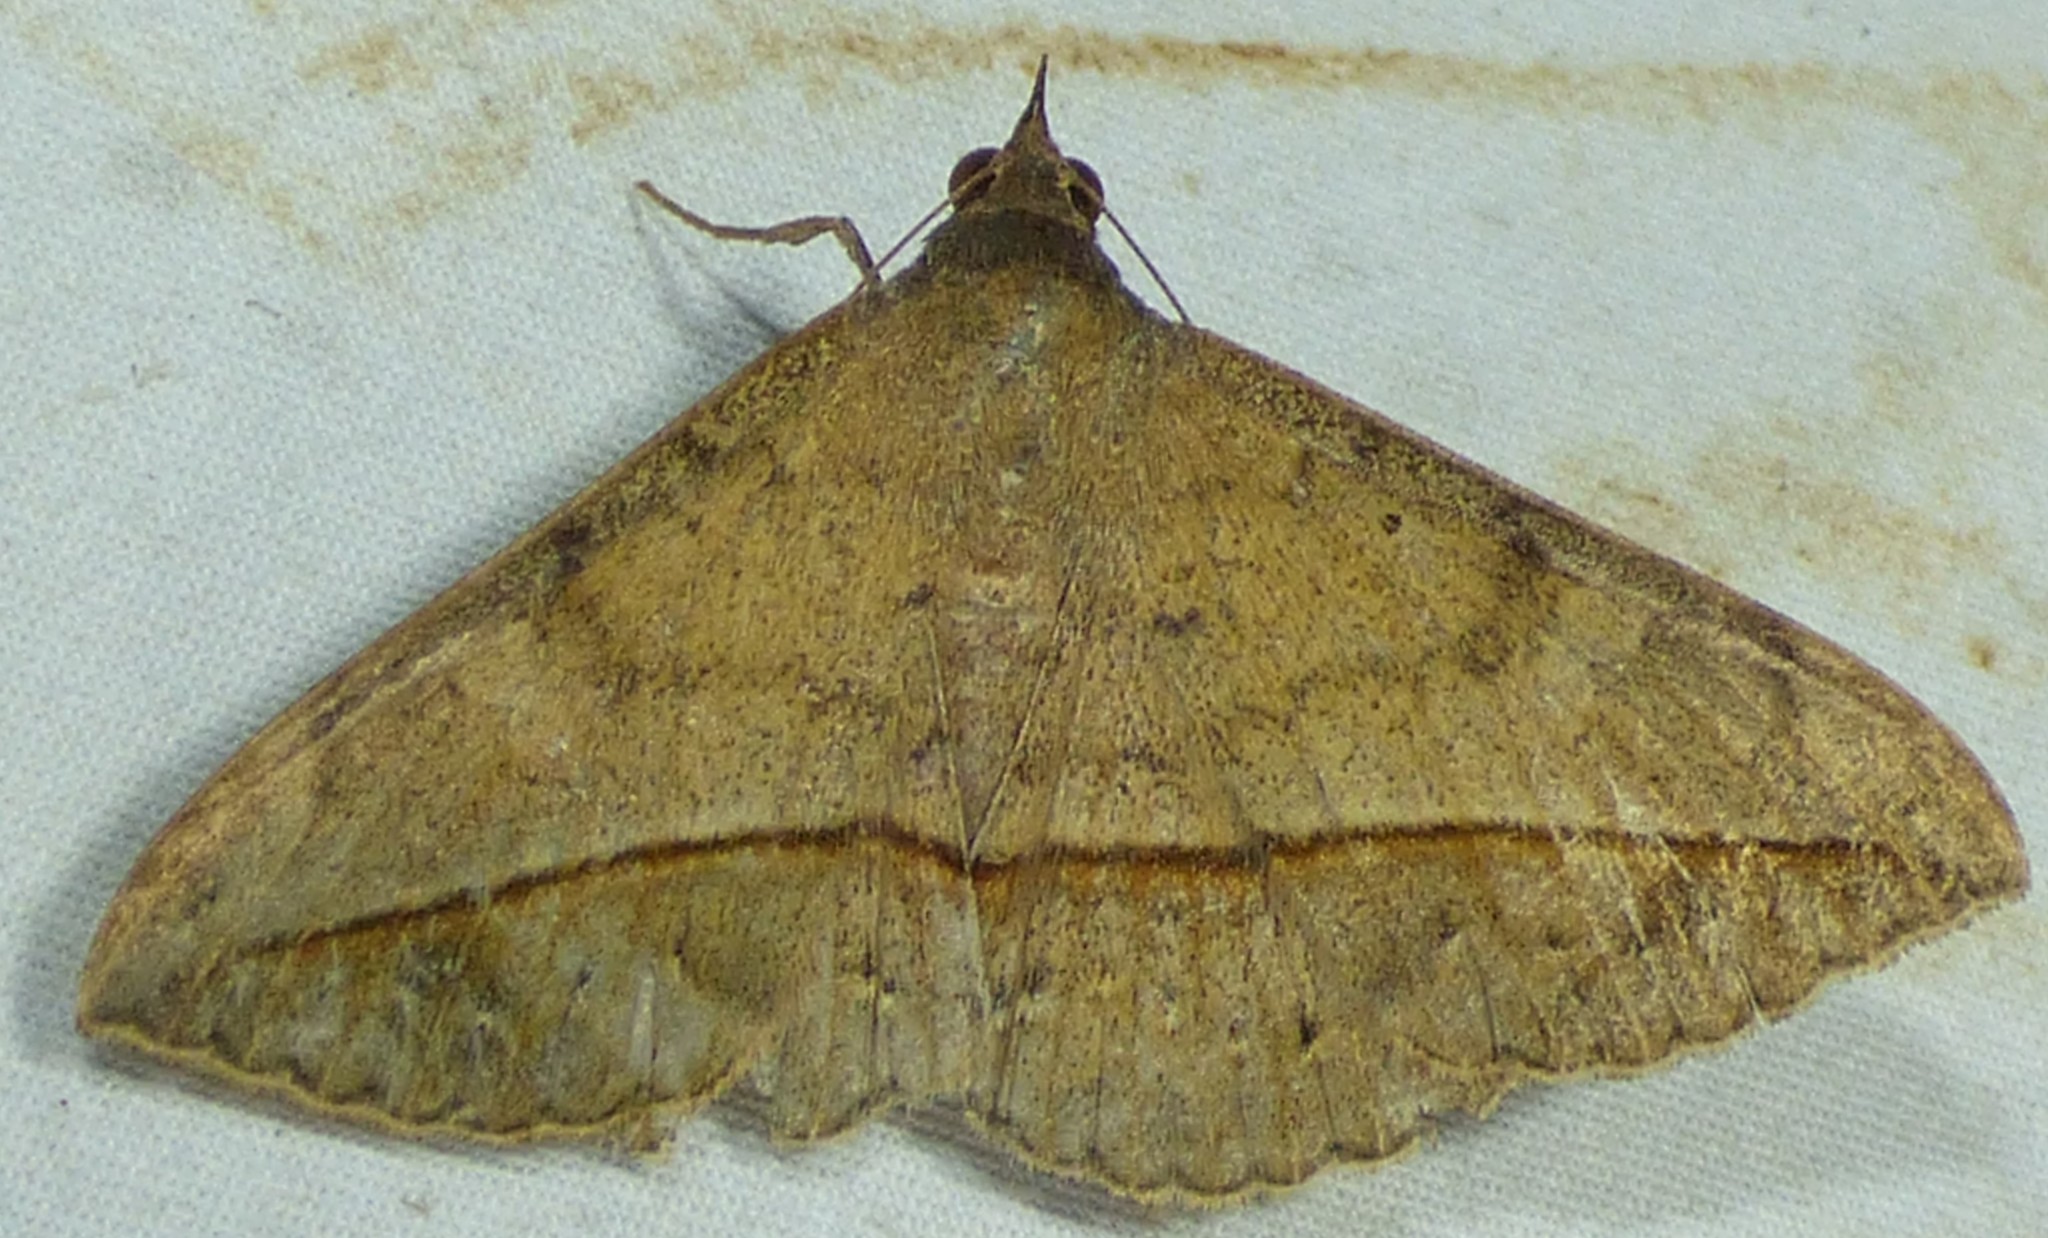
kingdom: Animalia
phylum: Arthropoda
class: Insecta
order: Lepidoptera
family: Erebidae
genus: Anticarsia
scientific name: Anticarsia gemmatalis
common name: Cutworm moth
